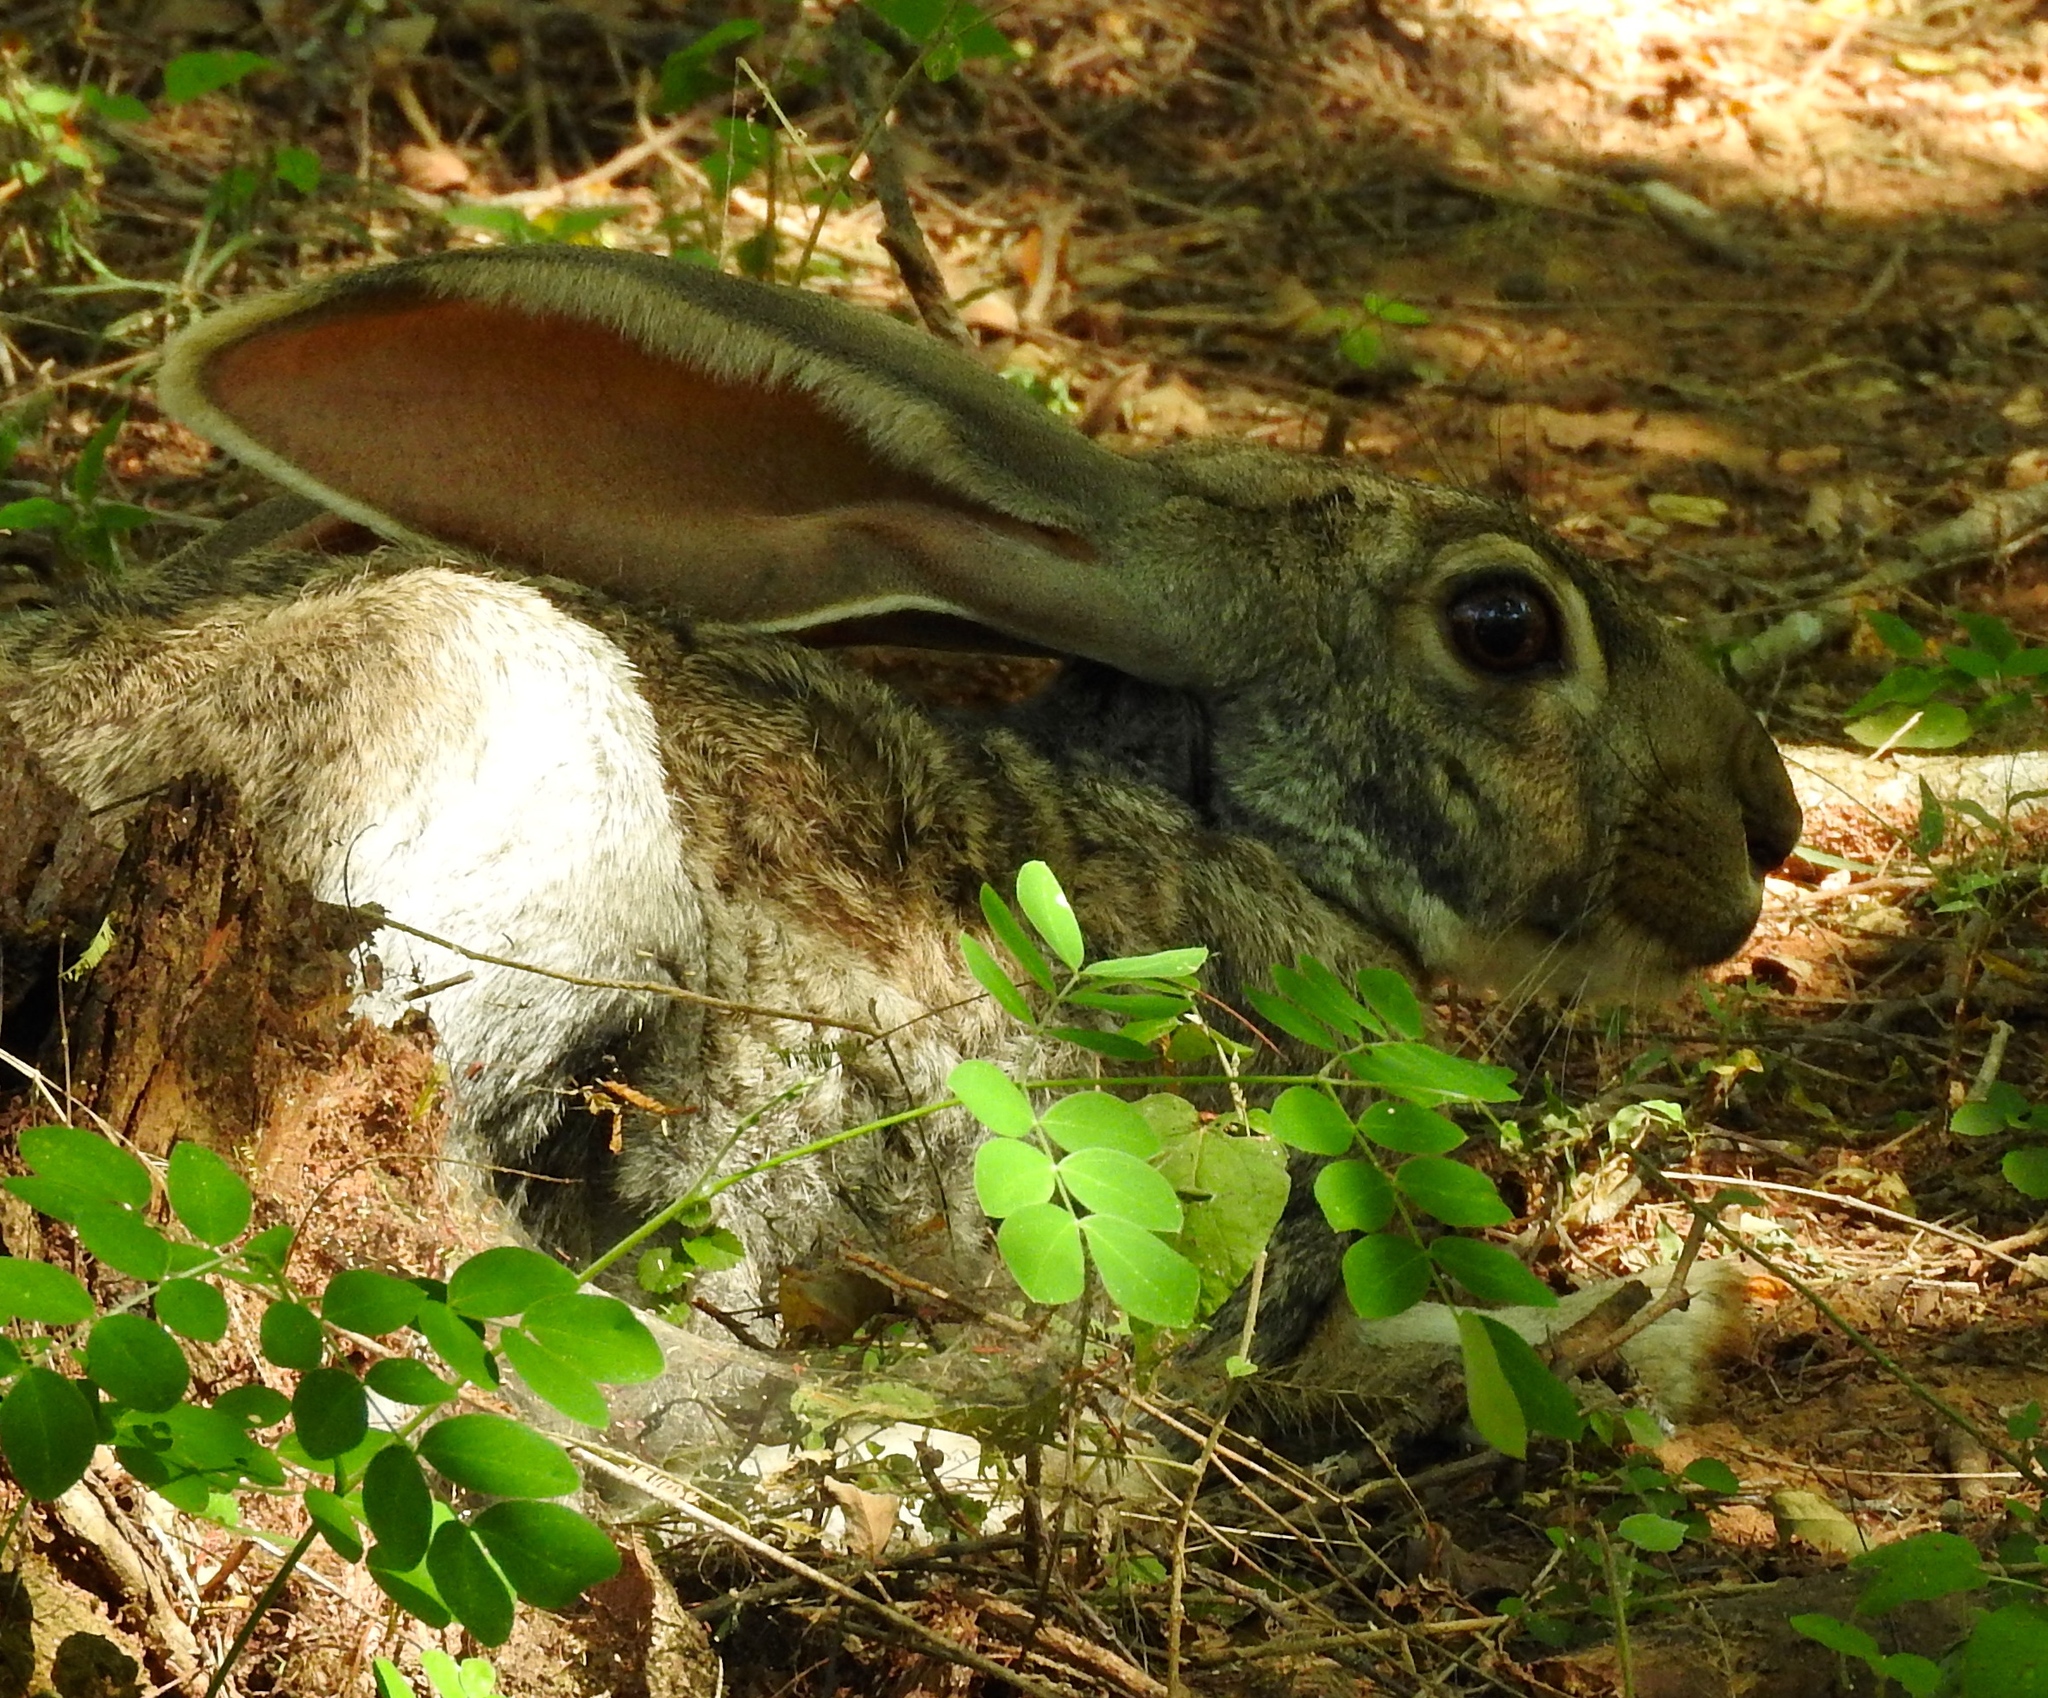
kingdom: Animalia
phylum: Chordata
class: Mammalia
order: Lagomorpha
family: Leporidae
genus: Lepus
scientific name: Lepus alleni
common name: Antelope jackrabbit
